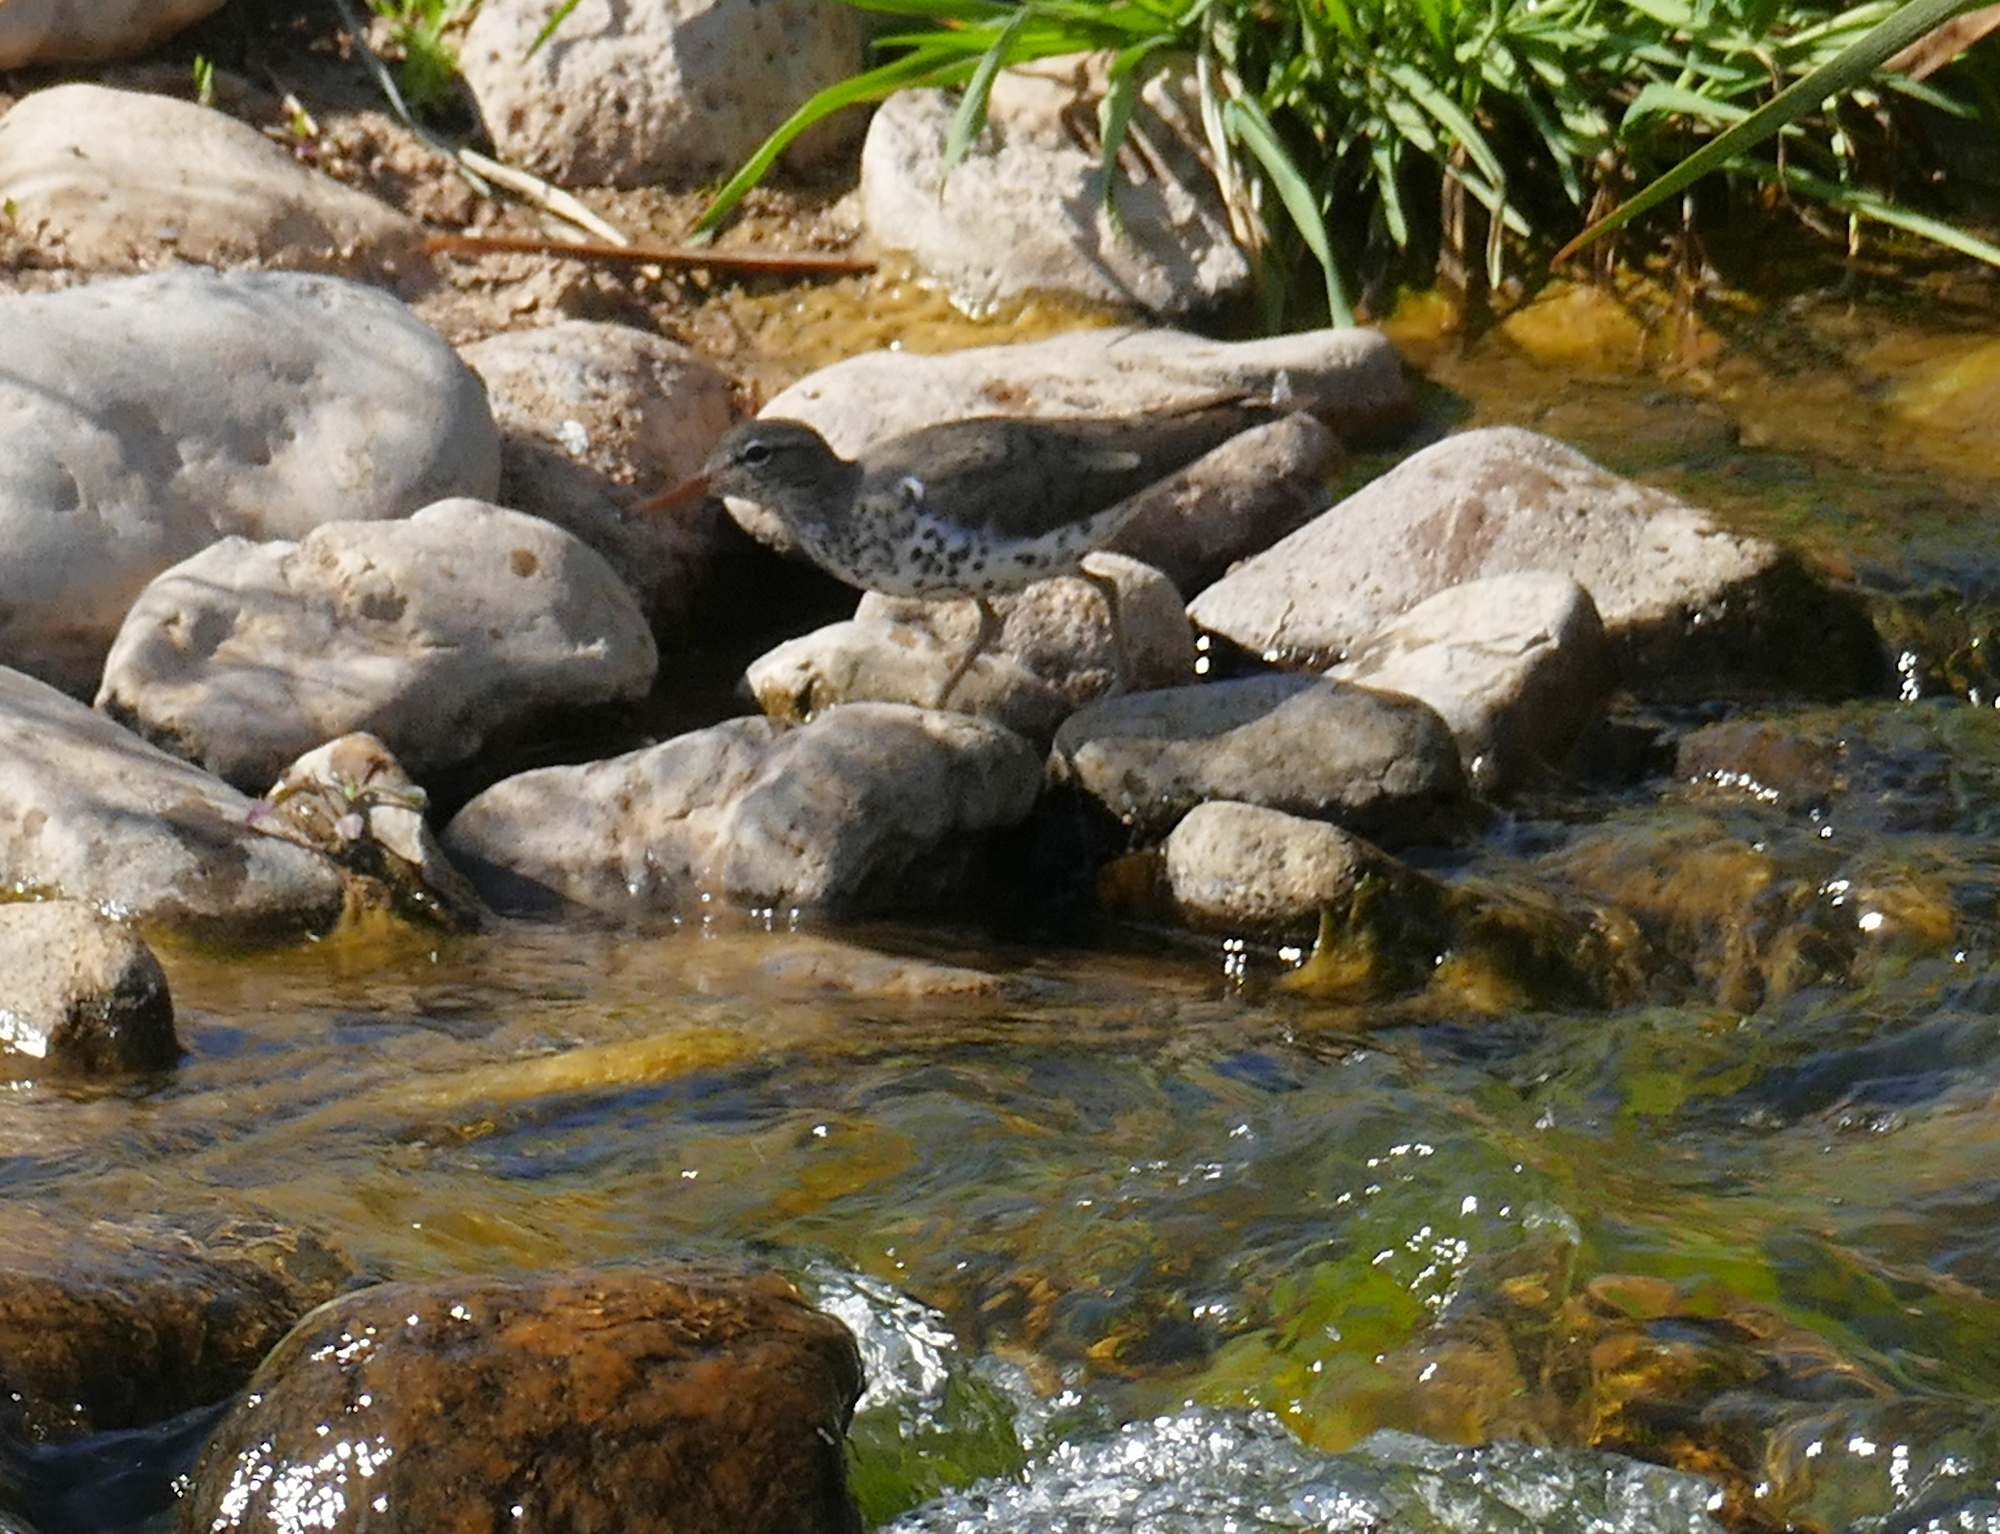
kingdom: Animalia
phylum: Chordata
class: Aves
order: Charadriiformes
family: Scolopacidae
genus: Actitis
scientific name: Actitis macularius
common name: Spotted sandpiper
